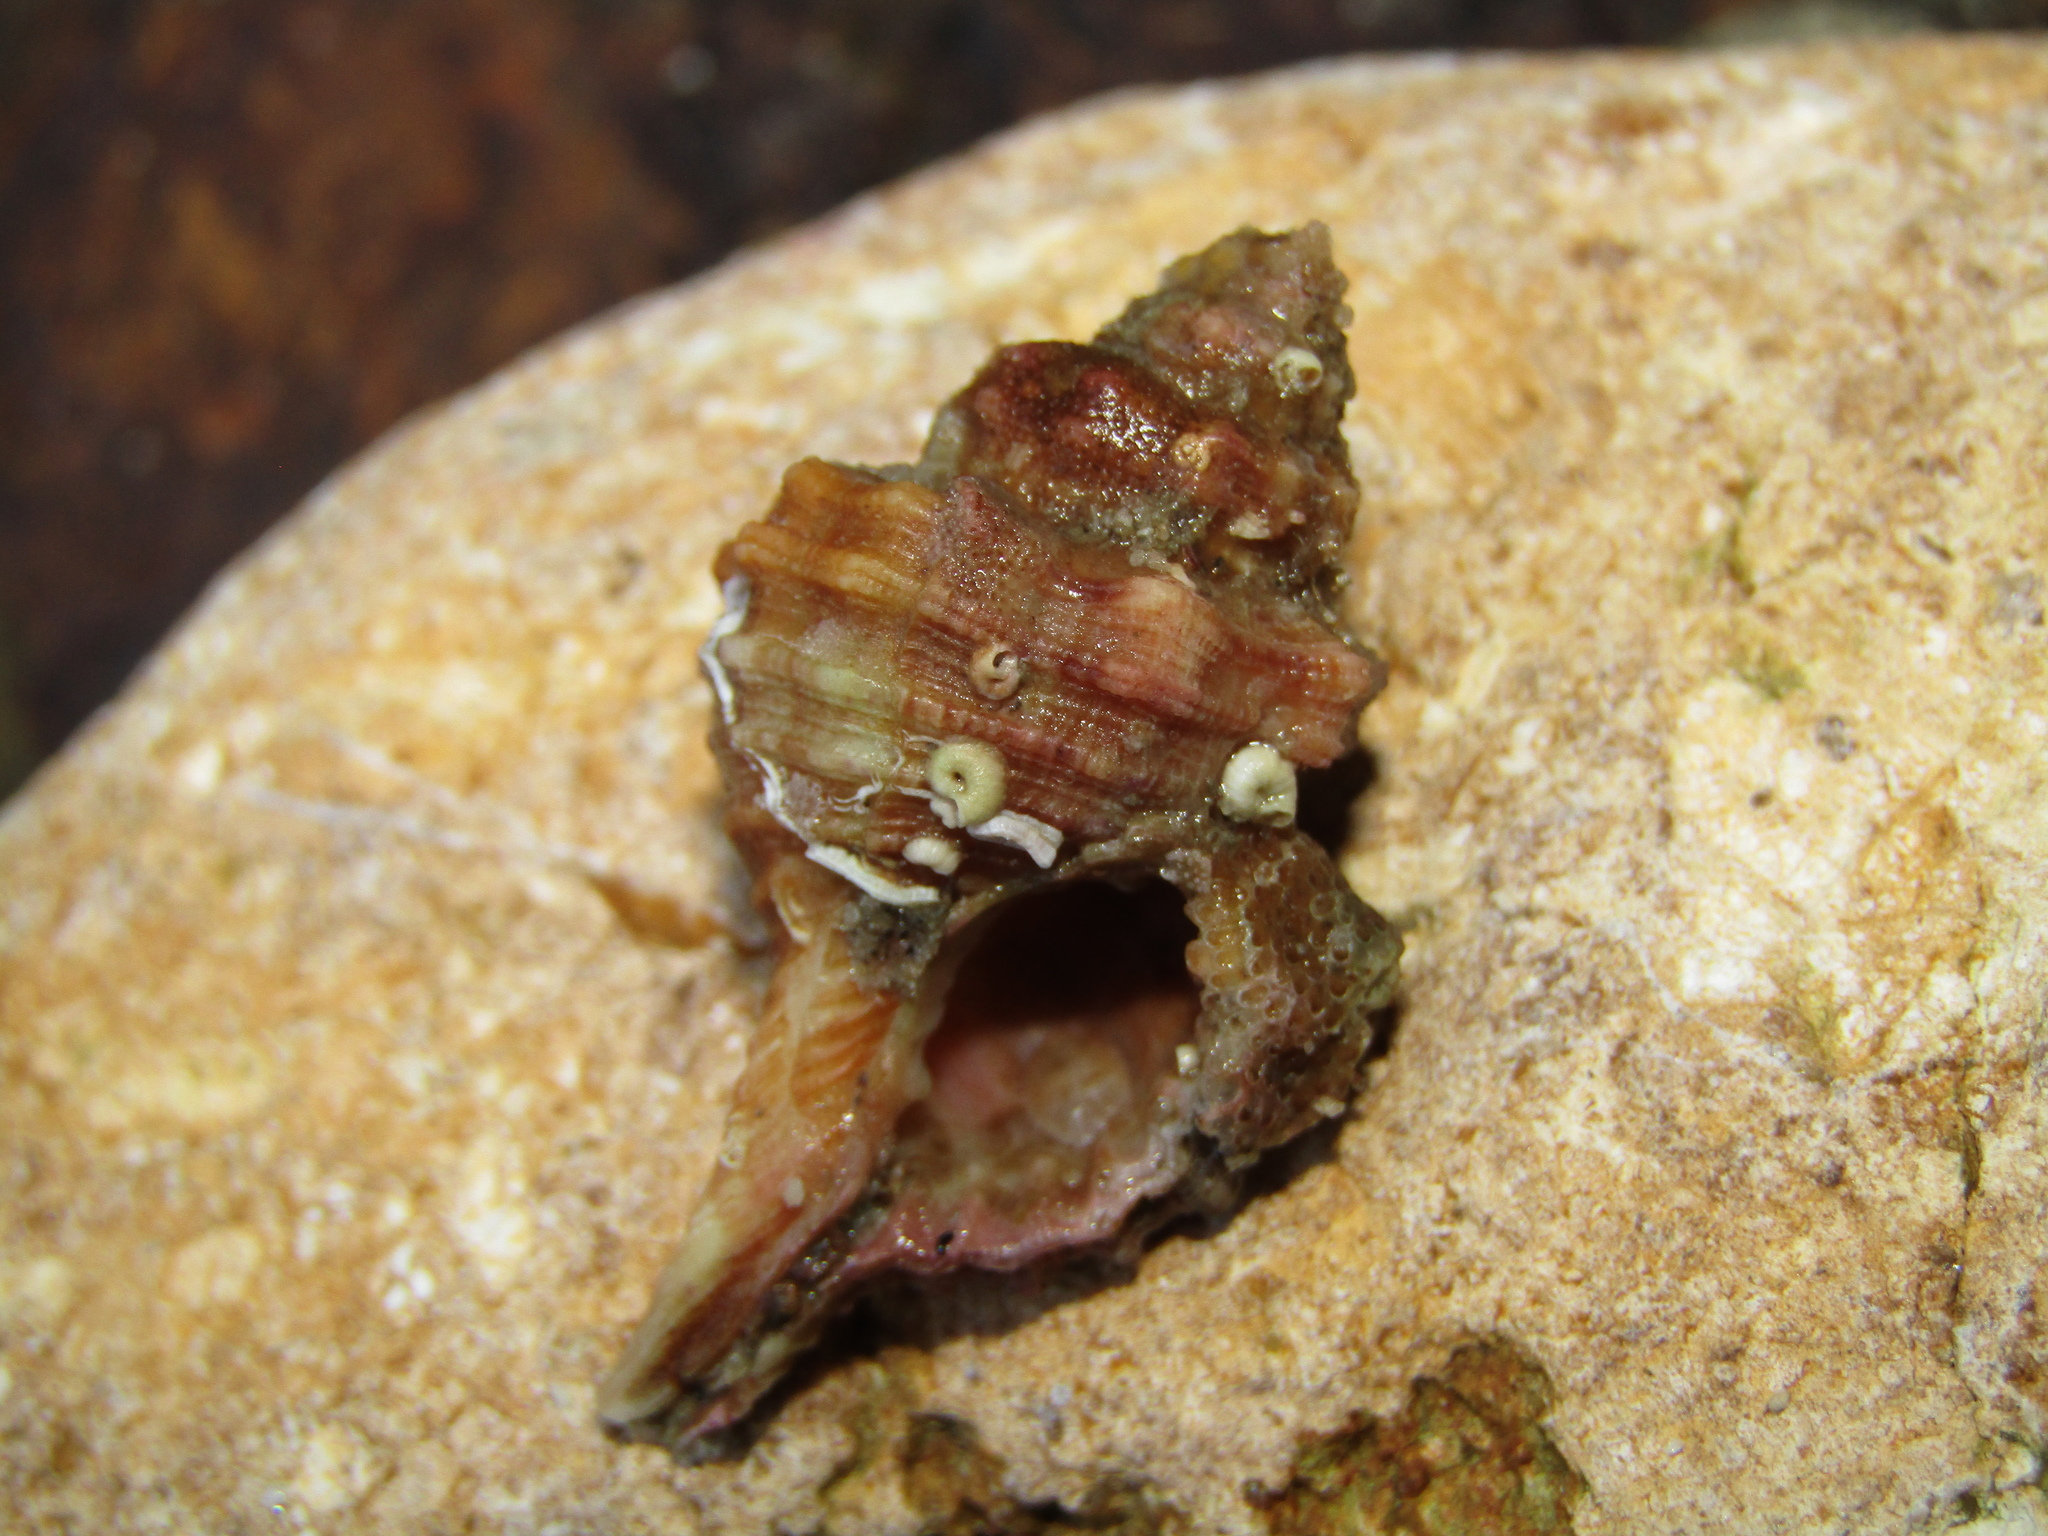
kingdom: Animalia
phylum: Mollusca
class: Gastropoda
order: Littorinimorpha
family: Cymatiidae
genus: Monoplex
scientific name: Monoplex exaratus
